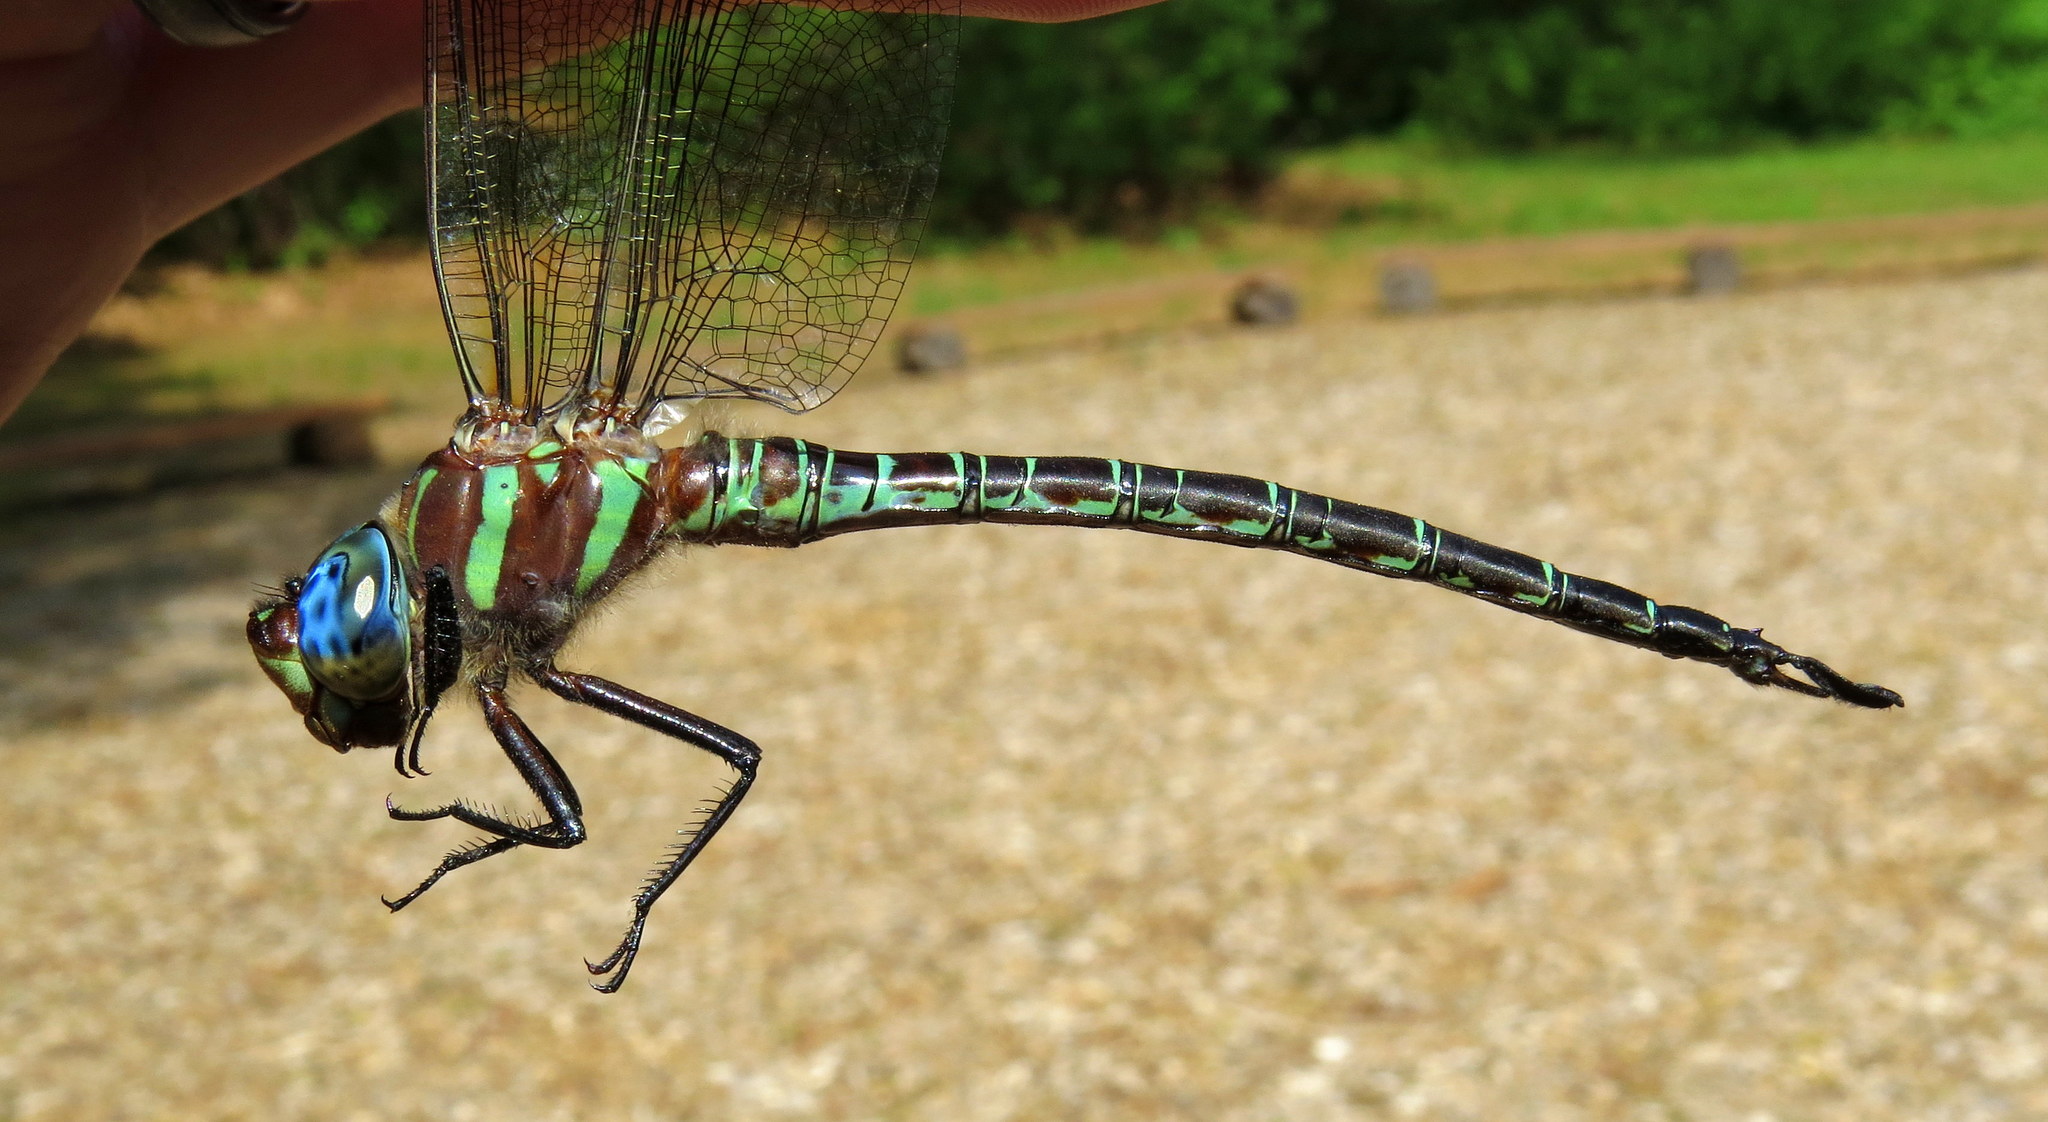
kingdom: Animalia
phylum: Arthropoda
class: Insecta
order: Odonata
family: Aeshnidae
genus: Epiaeschna
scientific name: Epiaeschna heros
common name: Swamp darner
